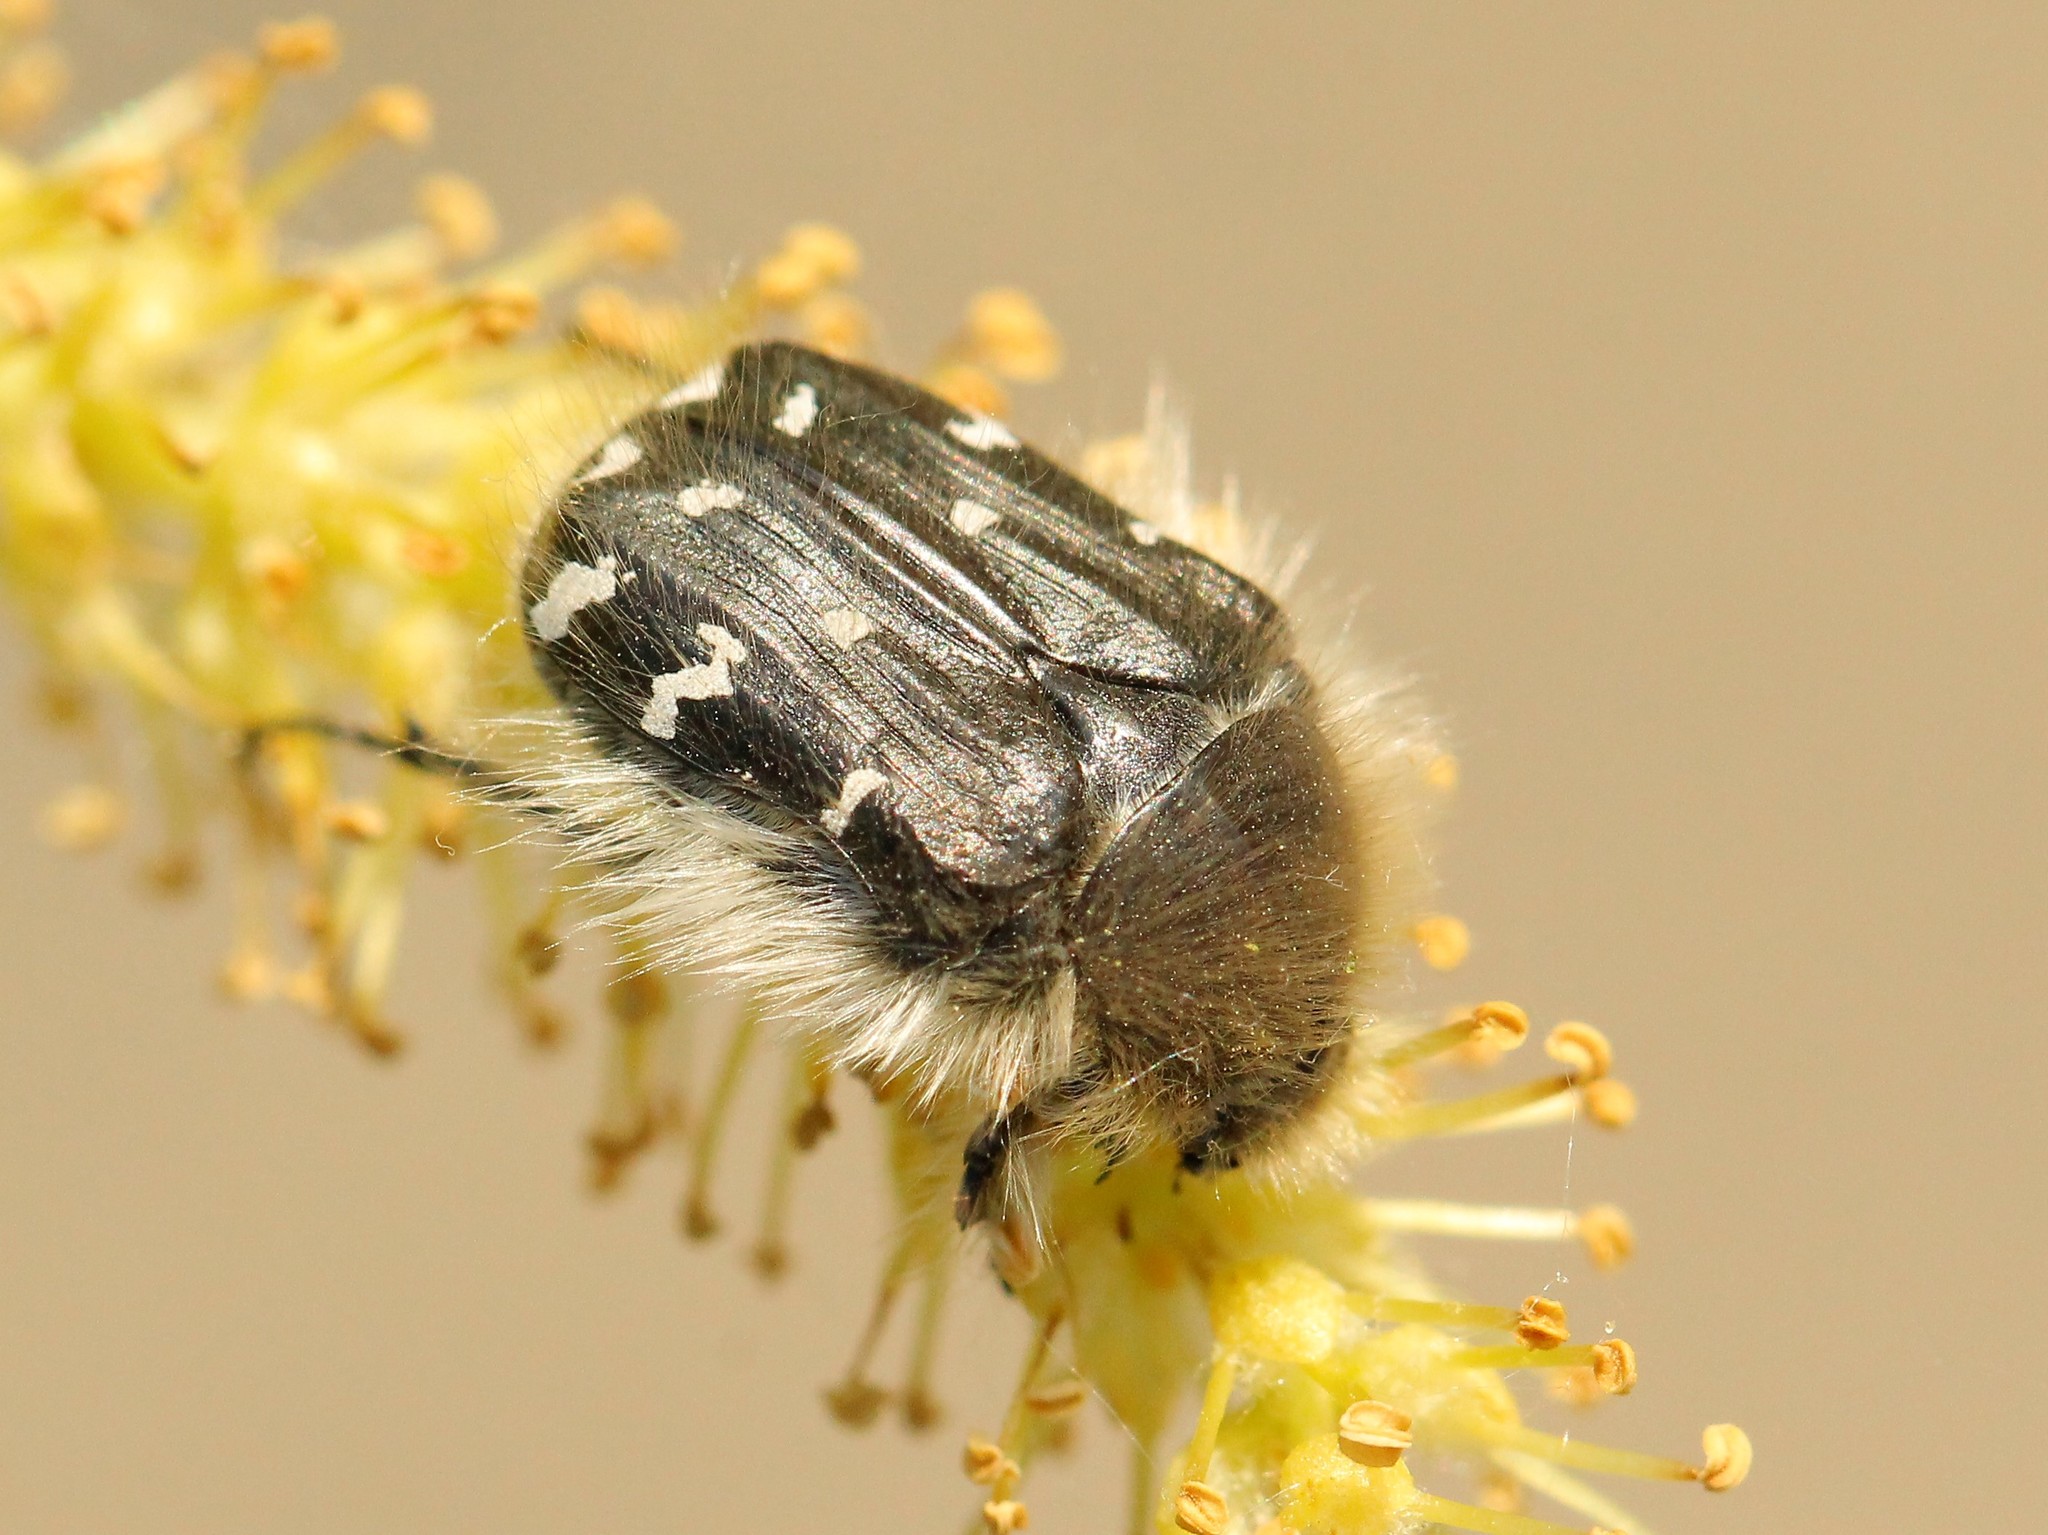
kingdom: Animalia
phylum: Arthropoda
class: Insecta
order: Coleoptera
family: Scarabaeidae
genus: Tropinota
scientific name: Tropinota hirta
